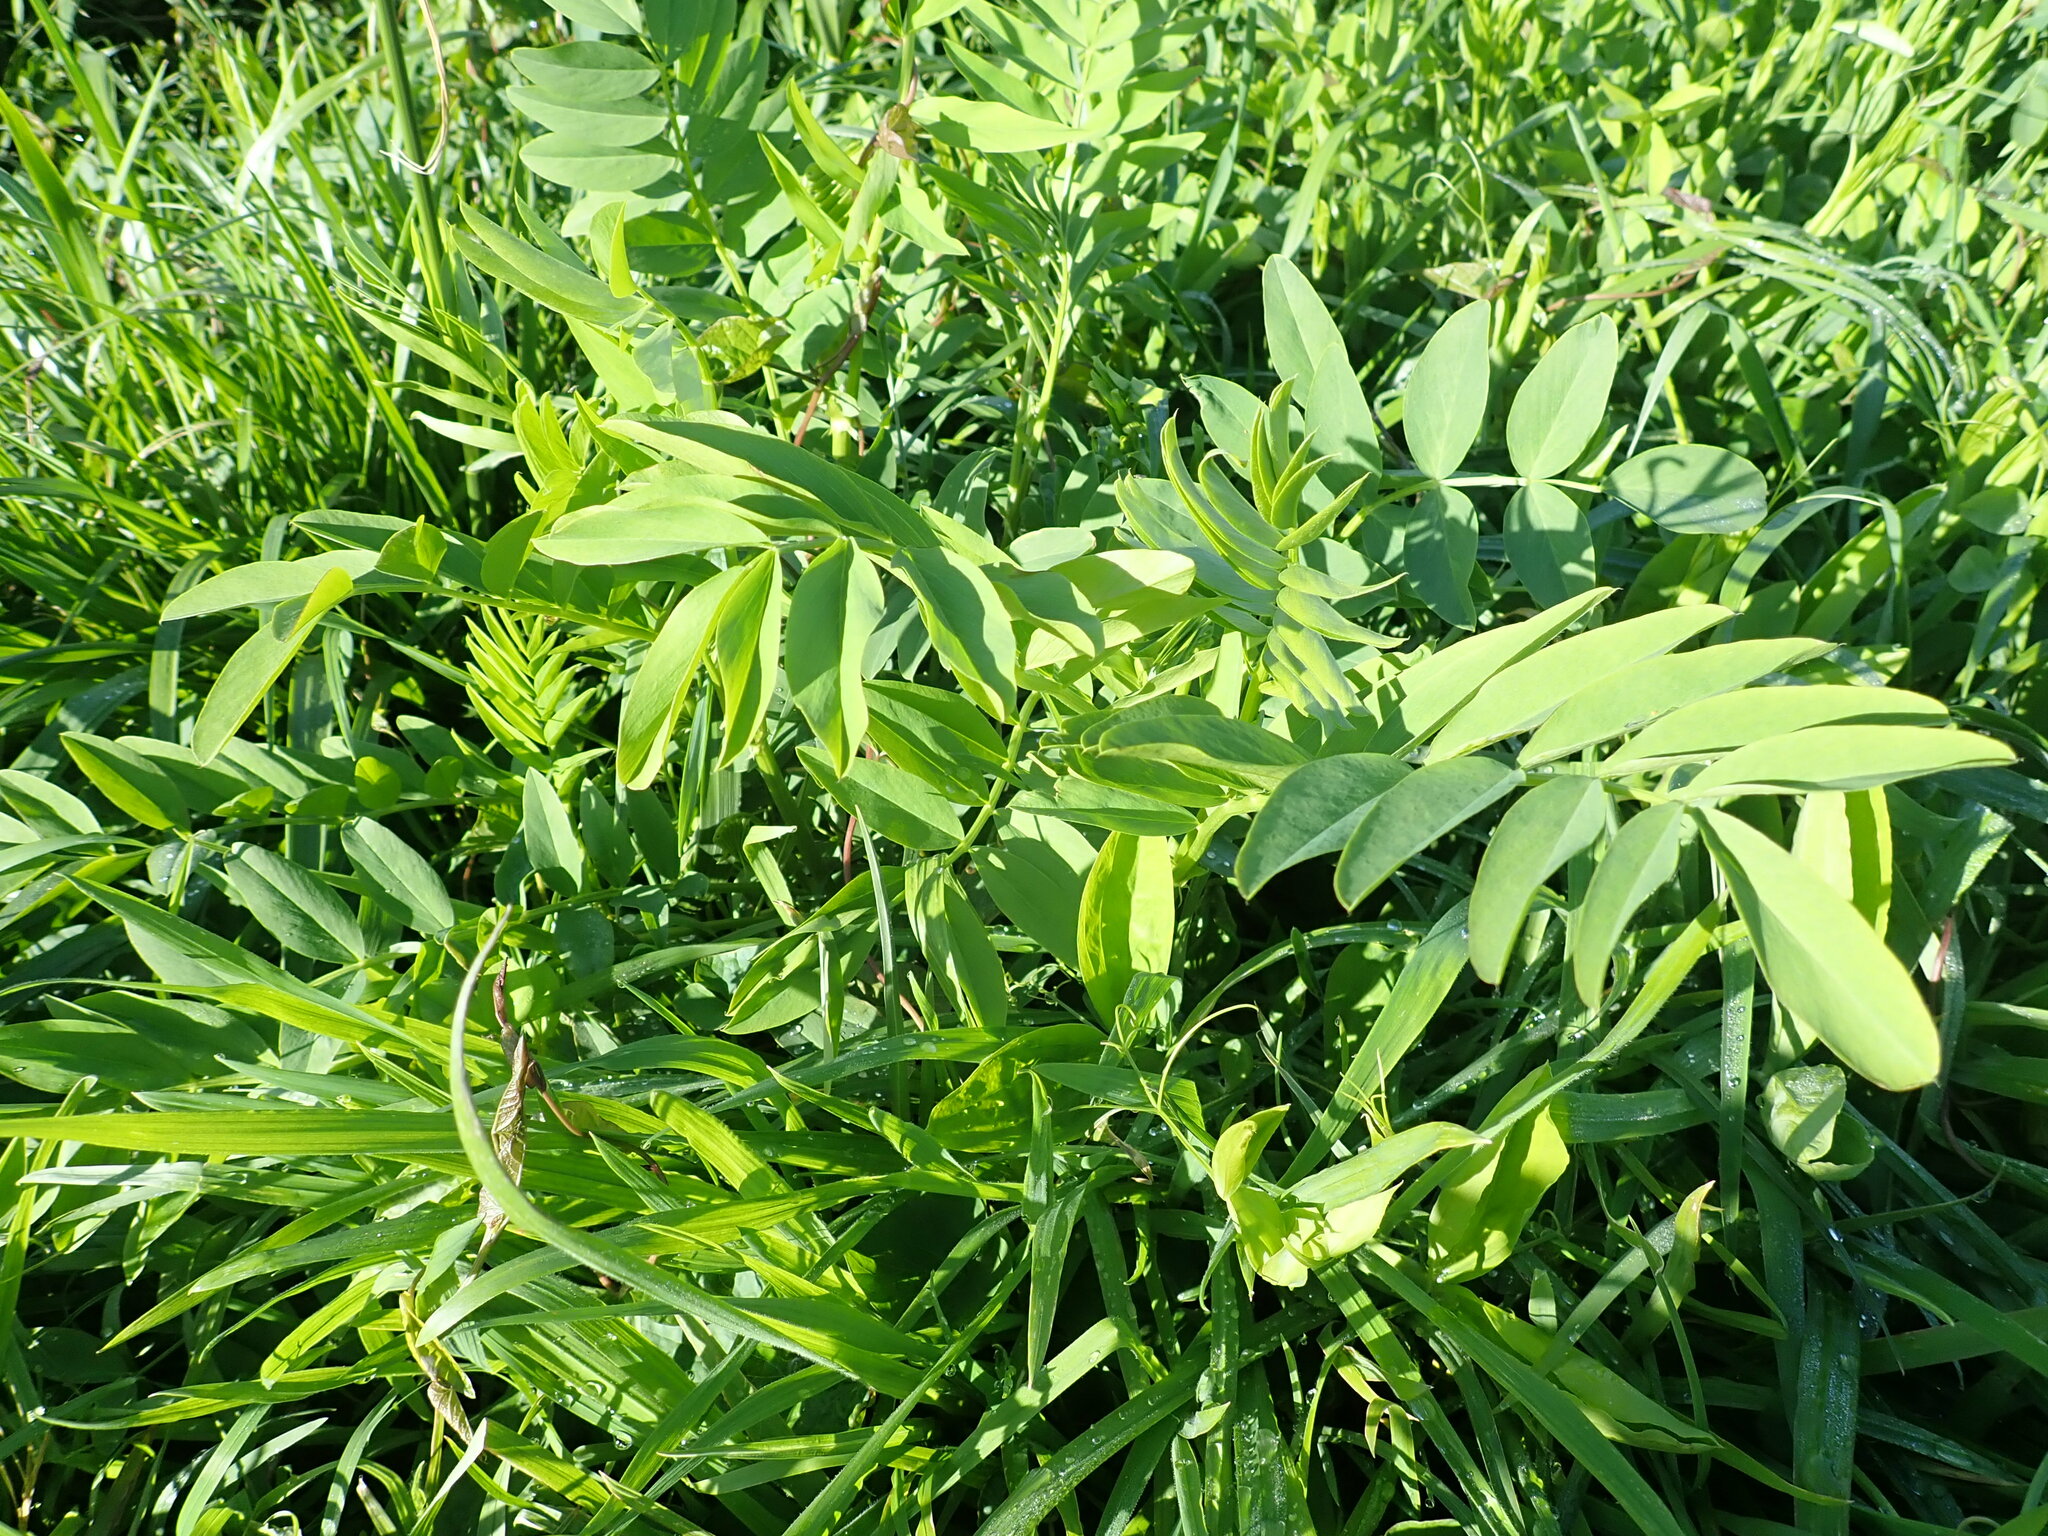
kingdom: Plantae
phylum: Tracheophyta
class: Magnoliopsida
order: Fabales
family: Fabaceae
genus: Galega
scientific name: Galega officinalis
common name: Goat's-rue
